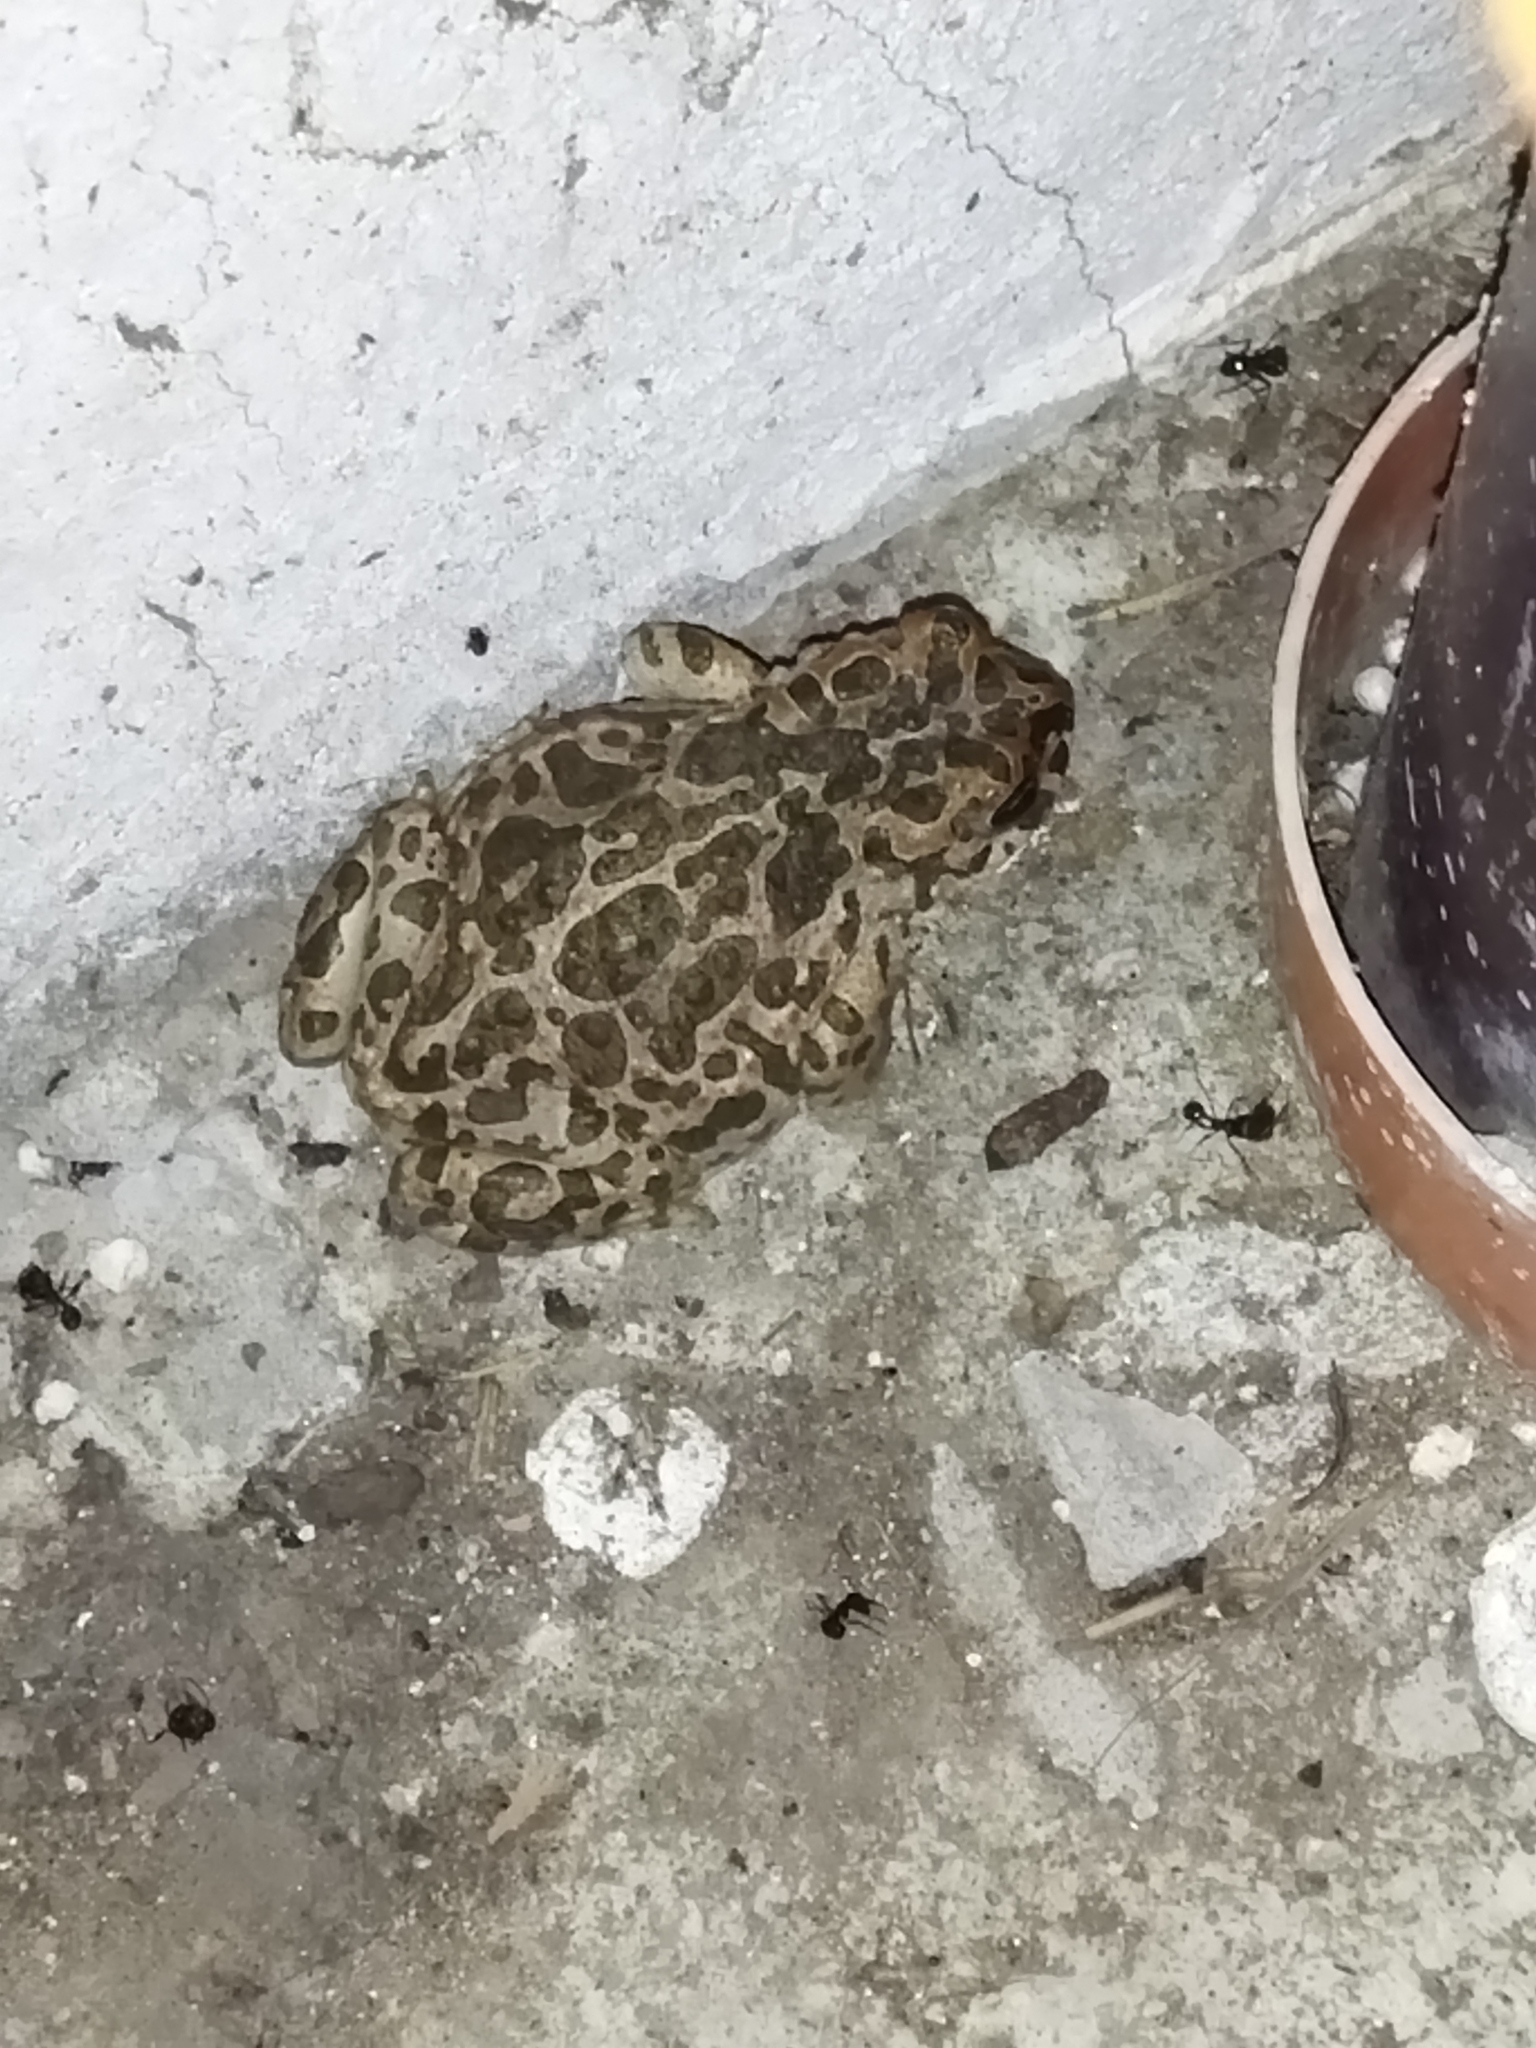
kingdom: Animalia
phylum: Chordata
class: Amphibia
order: Anura
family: Bufonidae
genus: Bufotes
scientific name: Bufotes viridis
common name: European green toad
